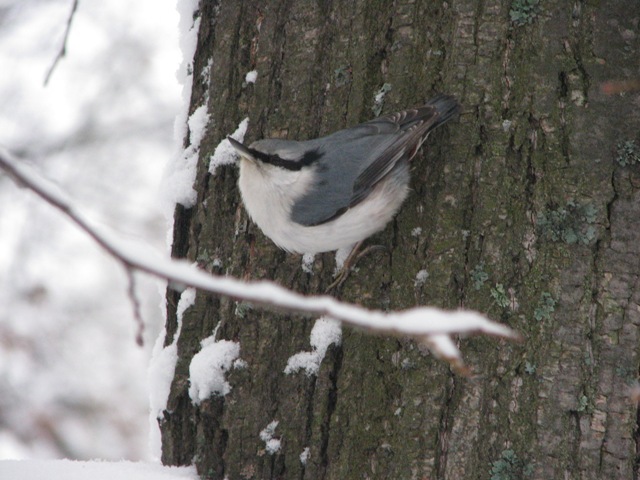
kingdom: Animalia
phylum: Chordata
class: Aves
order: Passeriformes
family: Sittidae
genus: Sitta
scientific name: Sitta europaea
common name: Eurasian nuthatch
